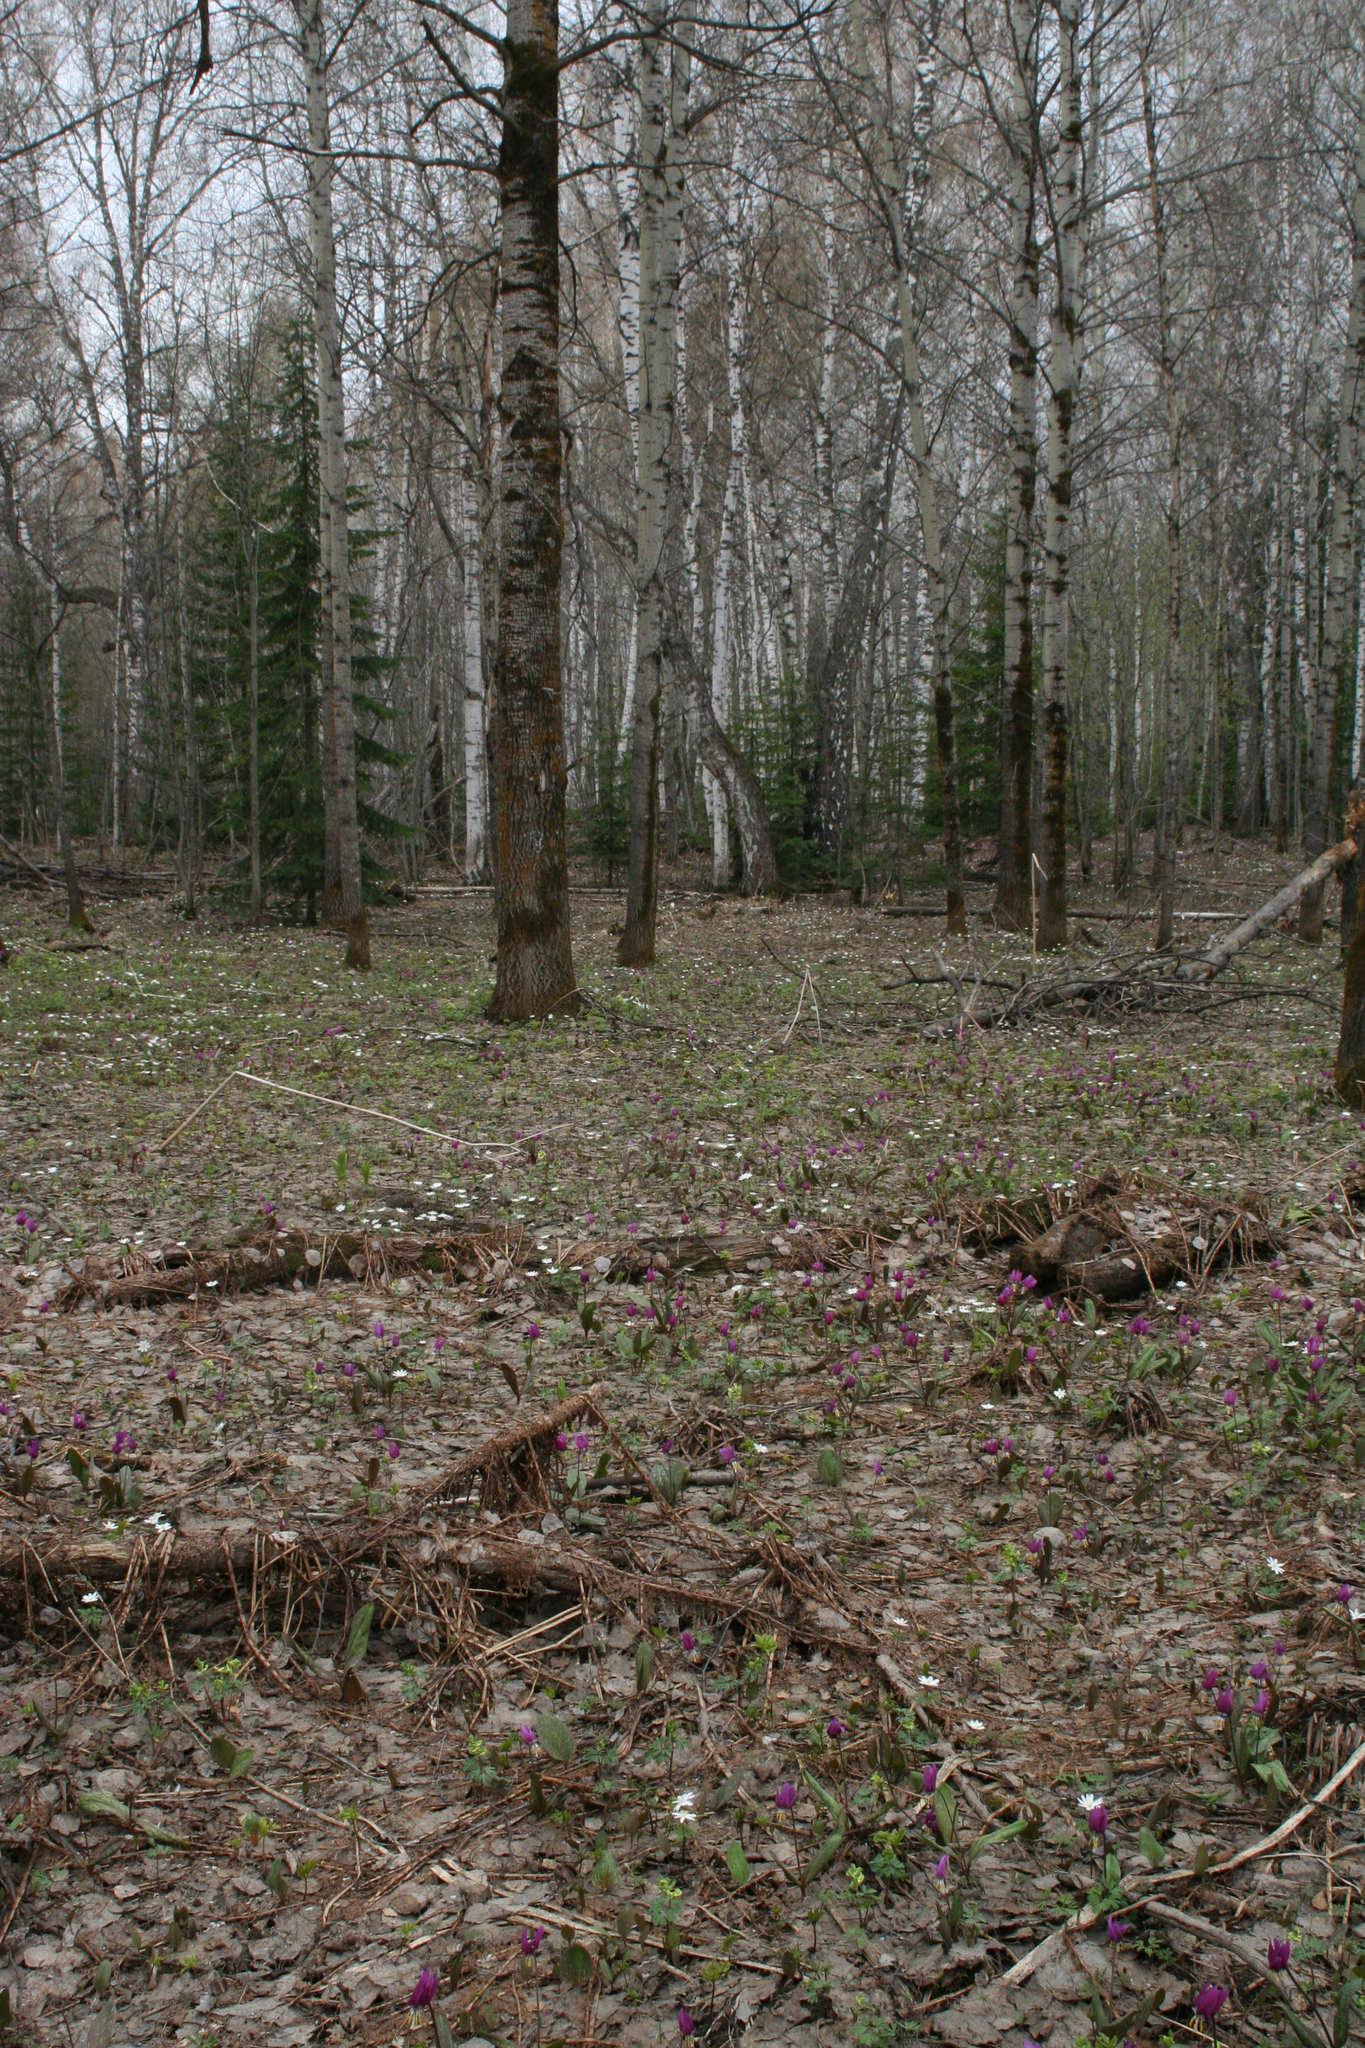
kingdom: Plantae
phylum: Tracheophyta
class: Magnoliopsida
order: Malpighiales
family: Salicaceae
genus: Populus
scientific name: Populus tremula
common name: European aspen
